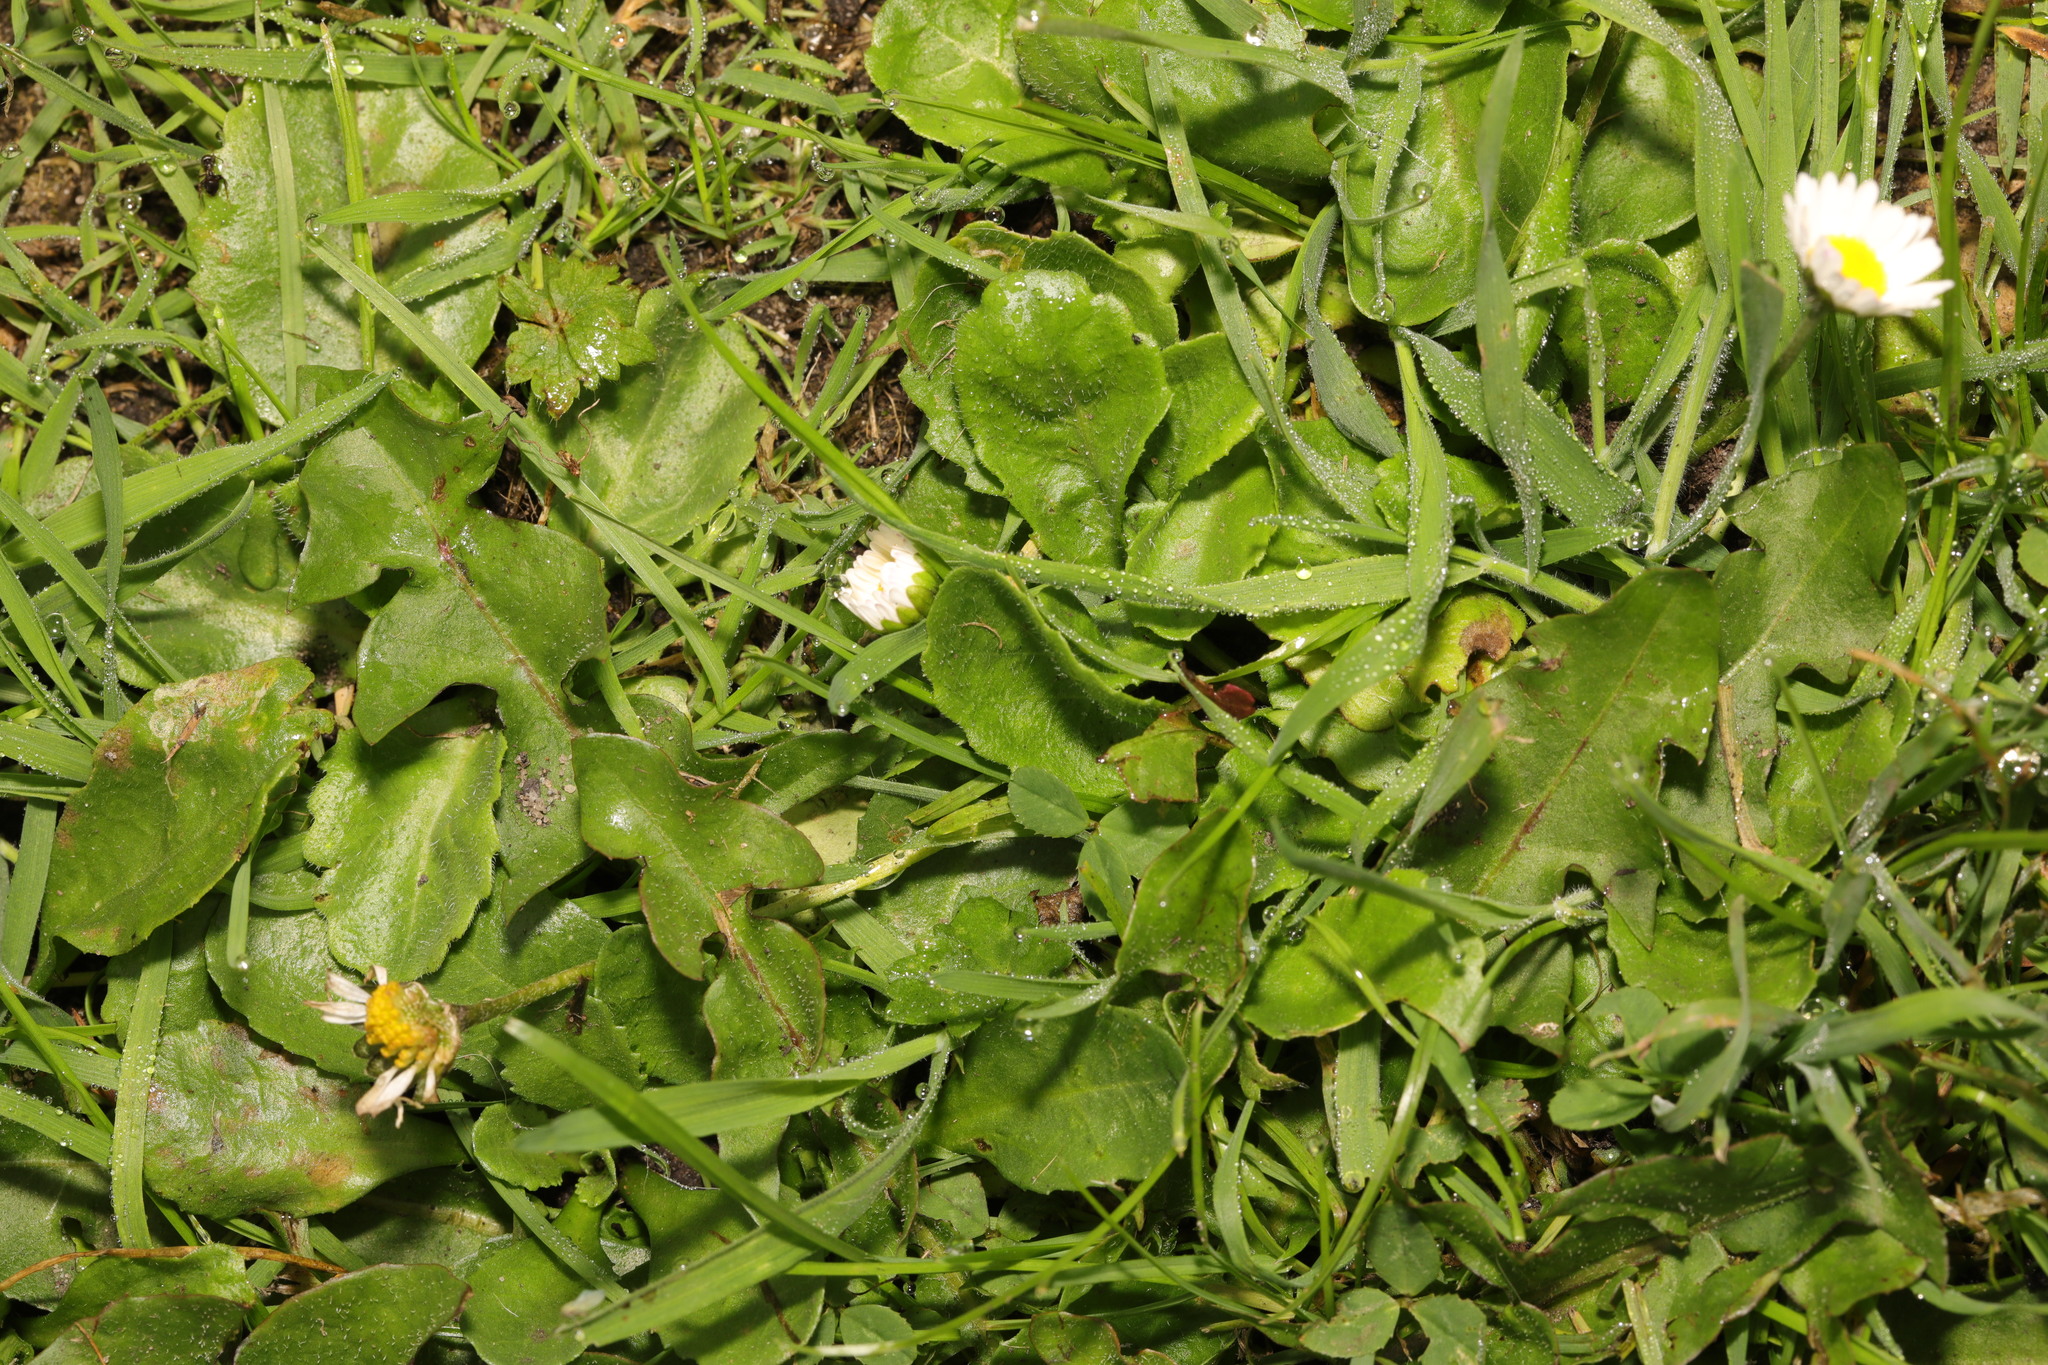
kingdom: Plantae
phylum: Tracheophyta
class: Magnoliopsida
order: Asterales
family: Asteraceae
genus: Bellis
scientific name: Bellis perennis
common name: Lawndaisy
